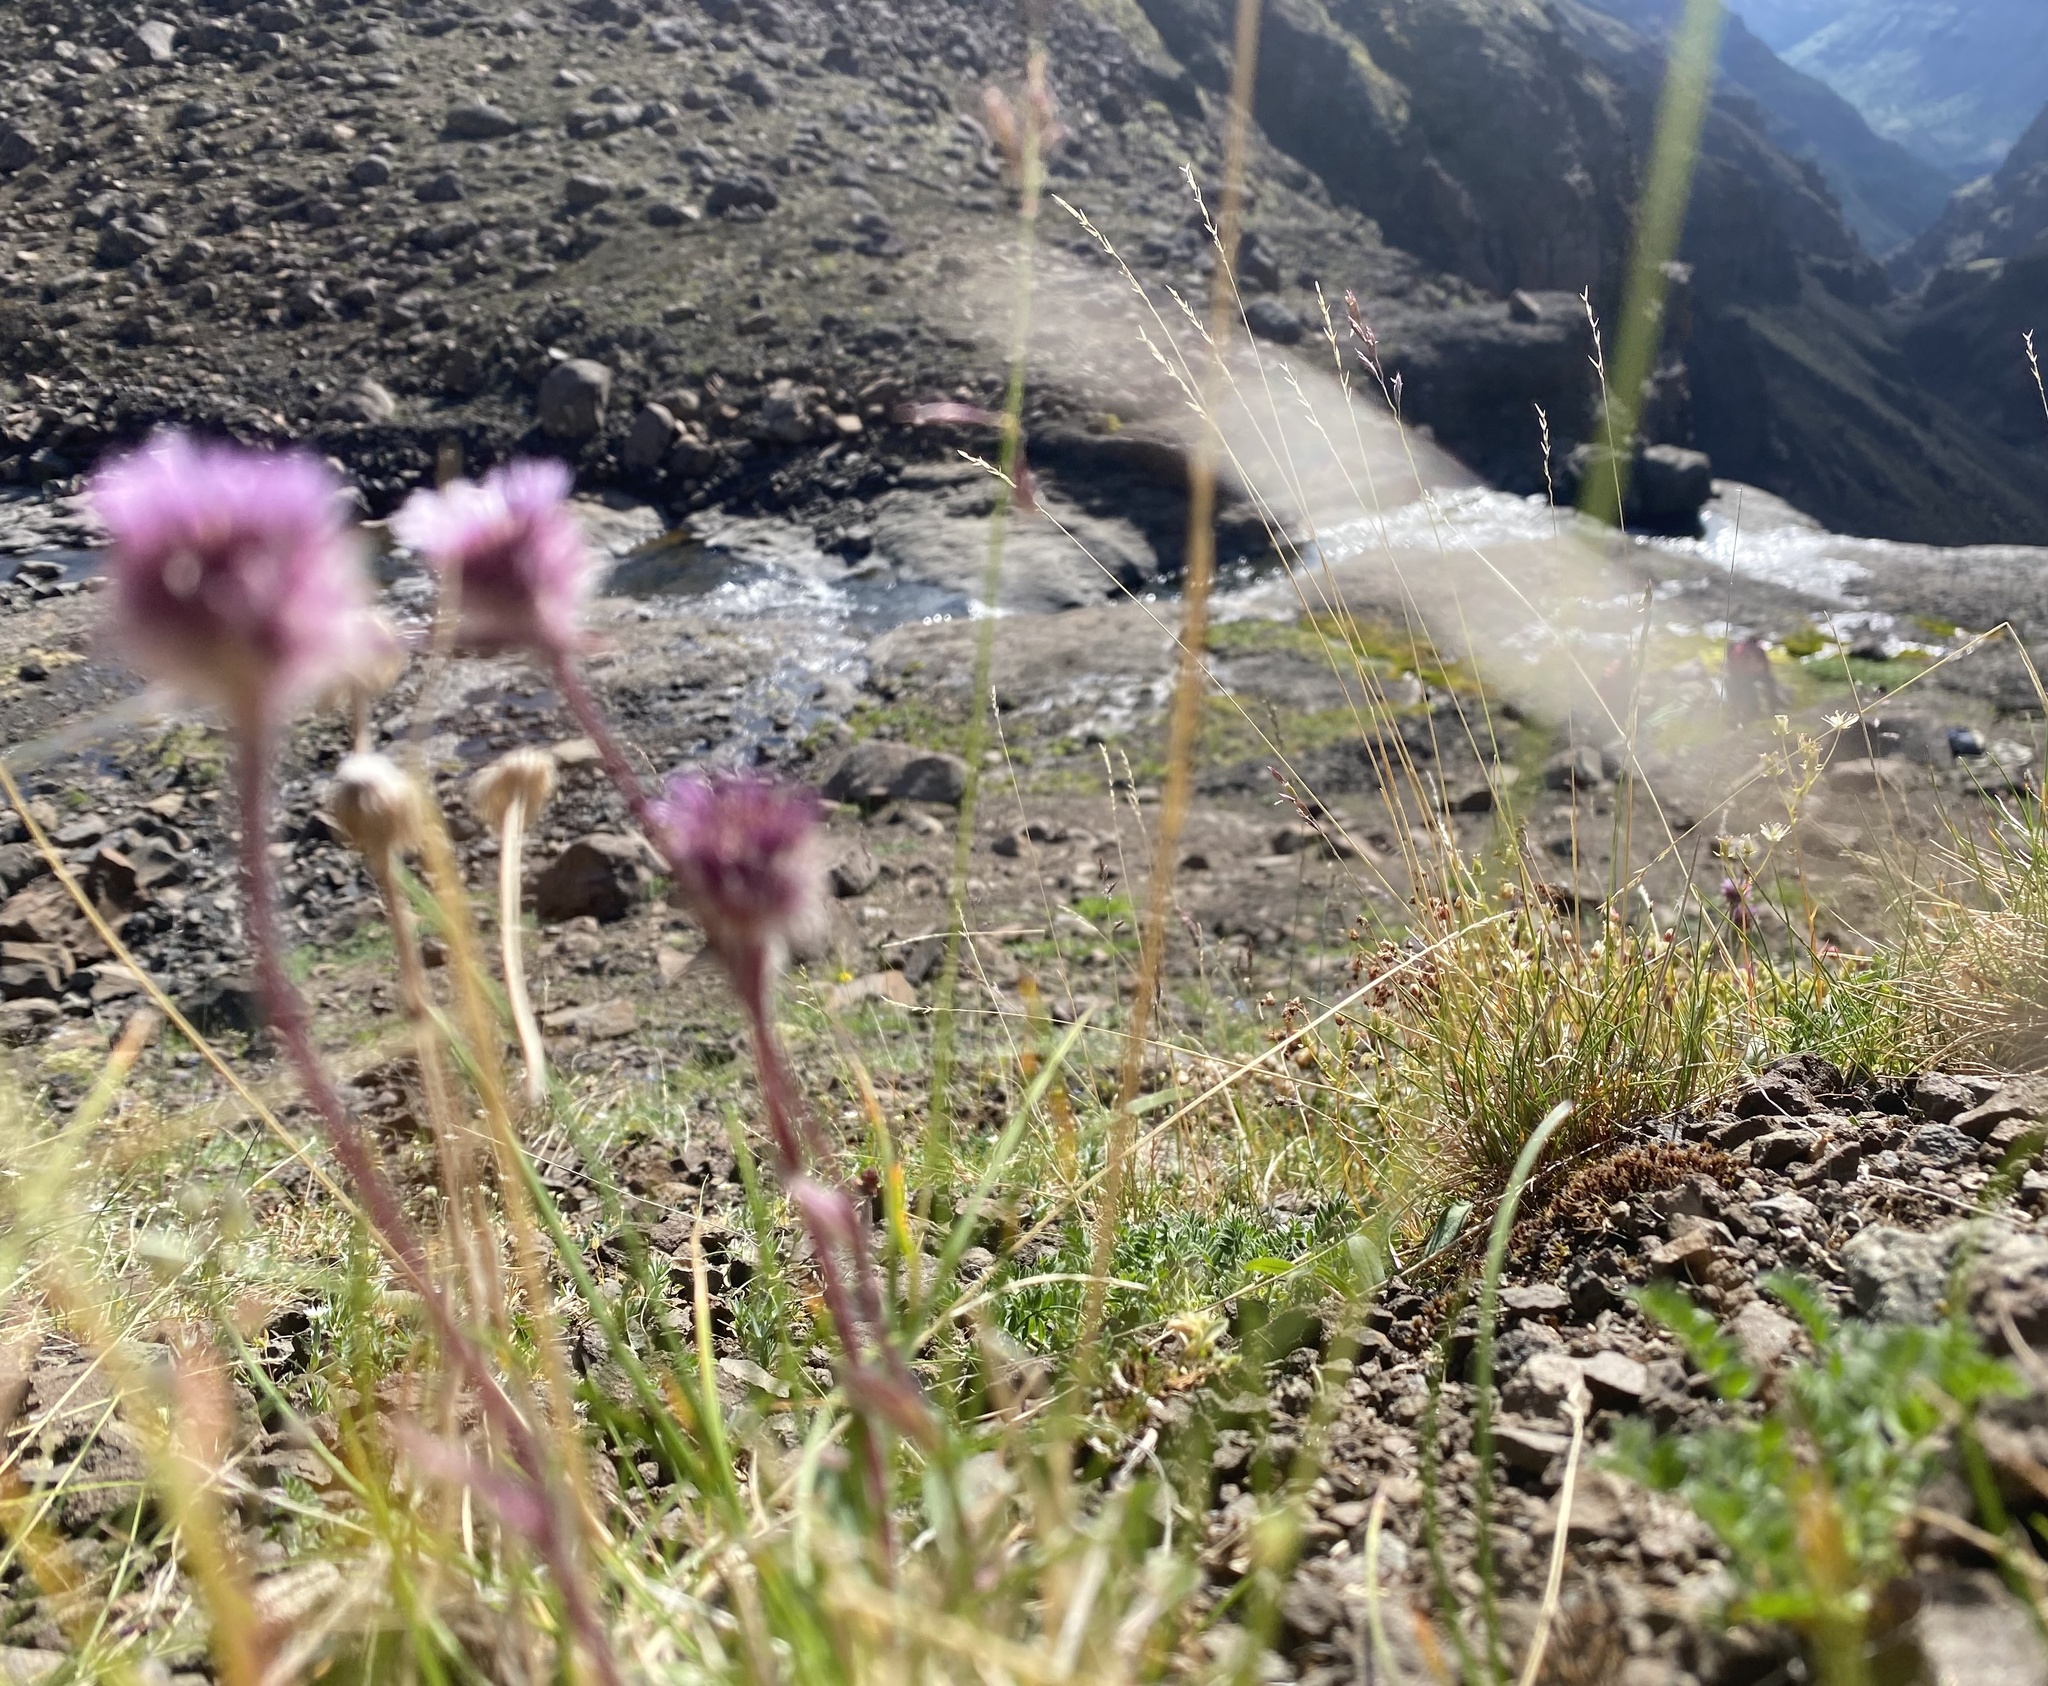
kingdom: Plantae
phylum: Tracheophyta
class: Magnoliopsida
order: Asterales
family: Asteraceae
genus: Erigeron
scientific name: Erigeron eriocephalus
